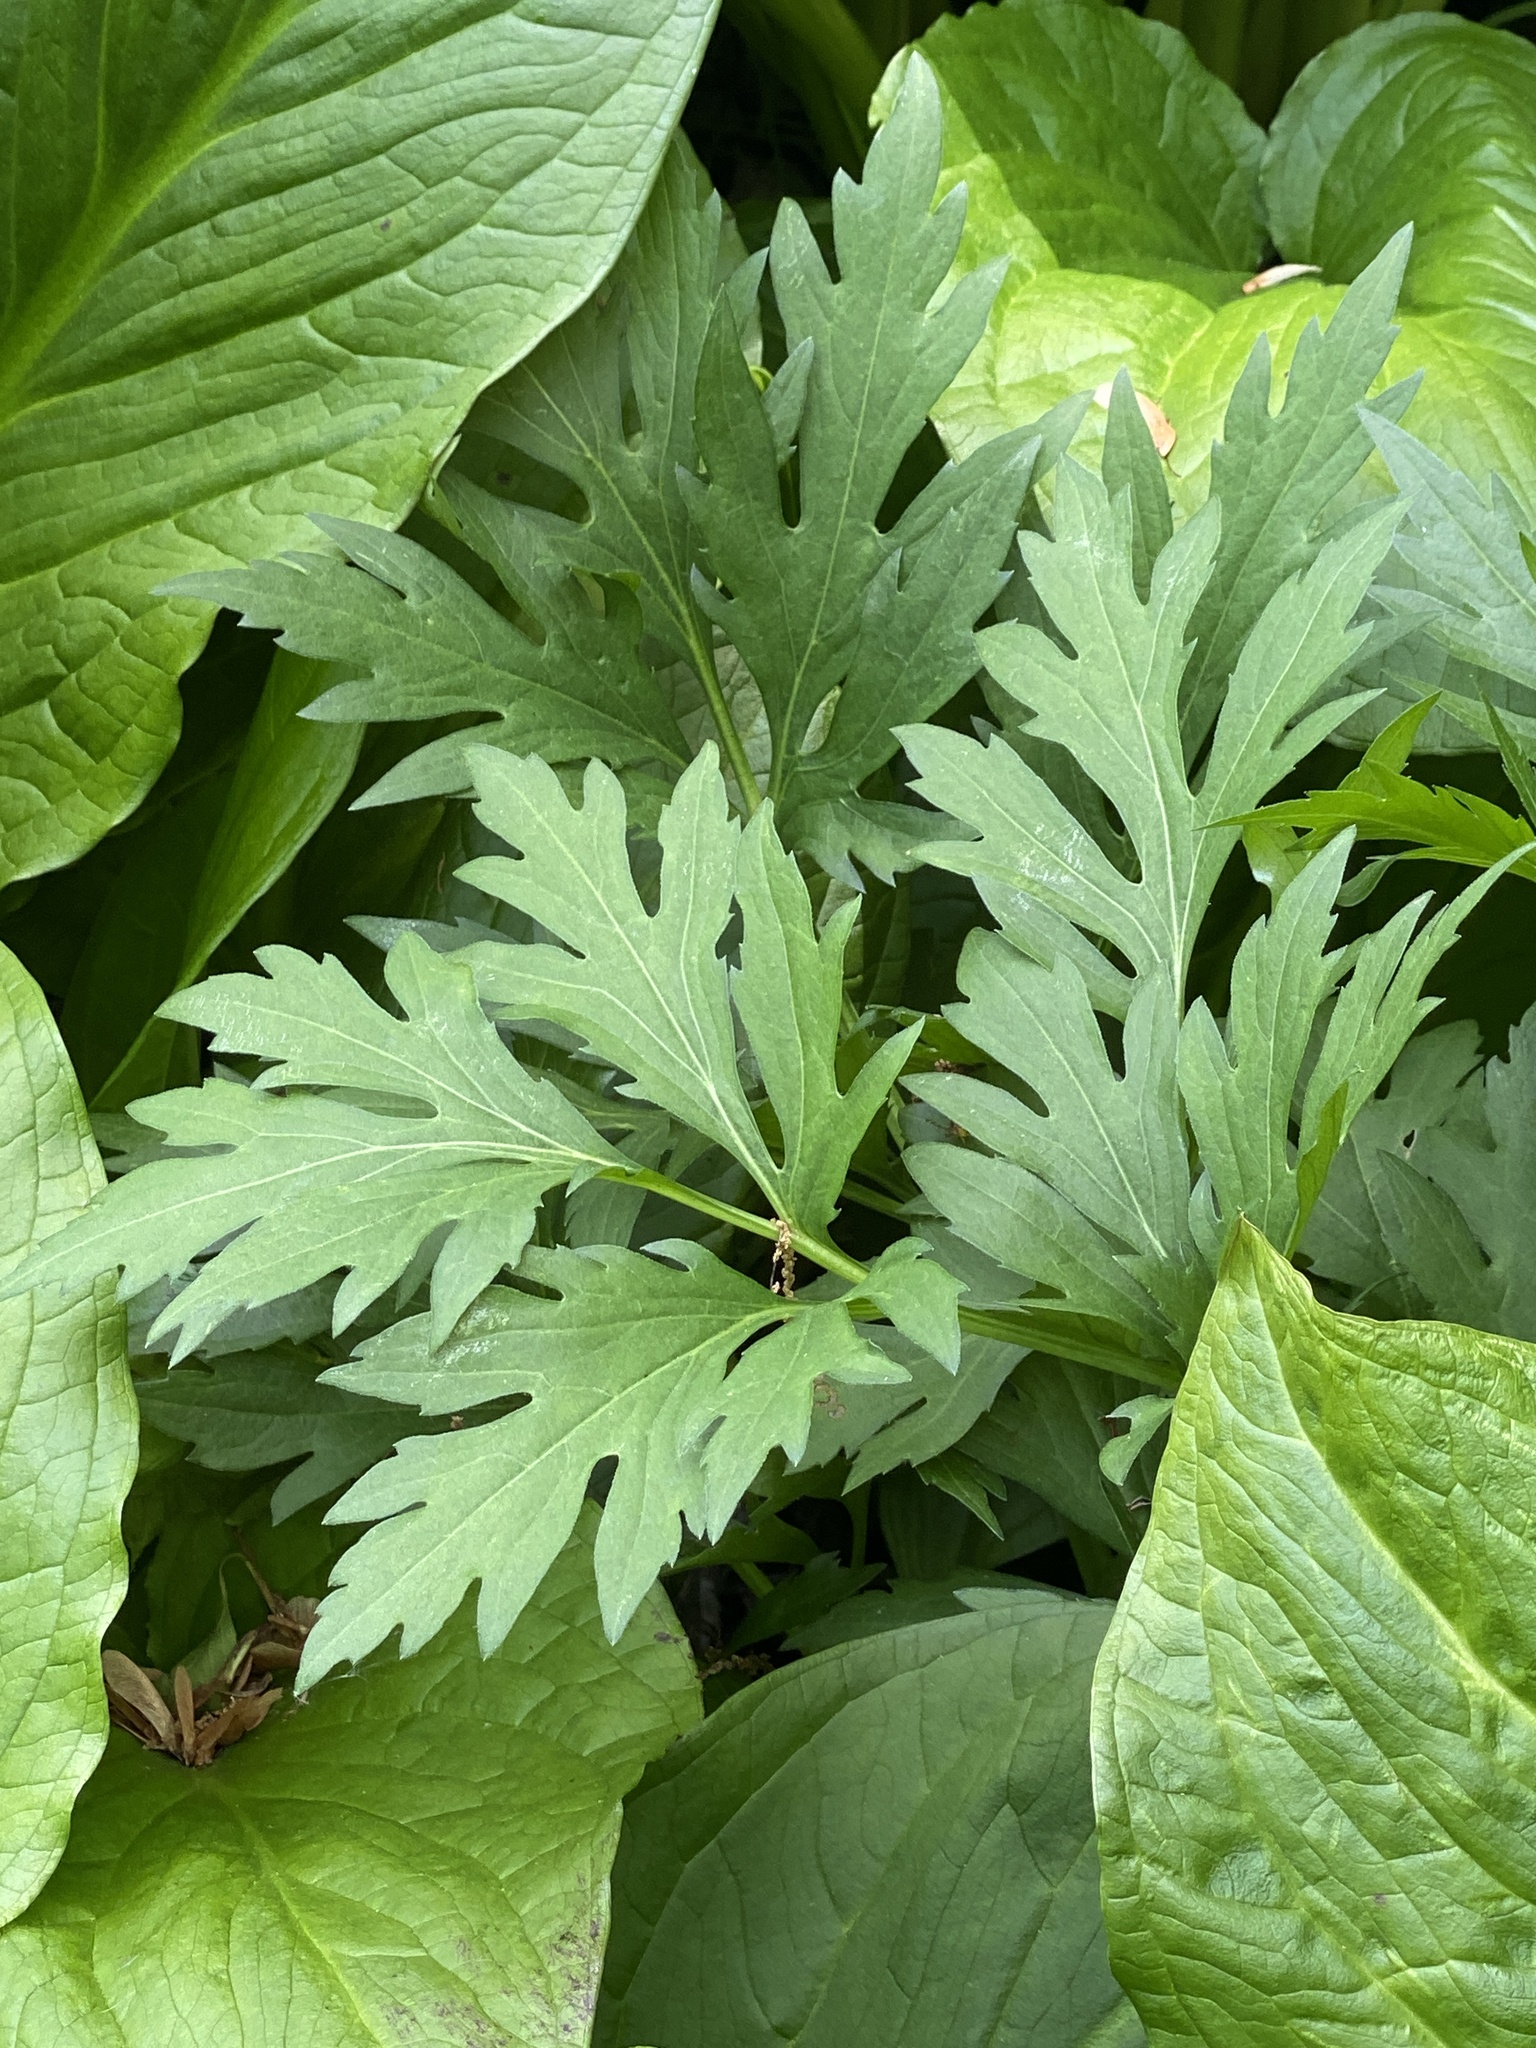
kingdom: Plantae
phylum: Tracheophyta
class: Magnoliopsida
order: Asterales
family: Asteraceae
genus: Rudbeckia
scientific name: Rudbeckia laciniata
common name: Coneflower
